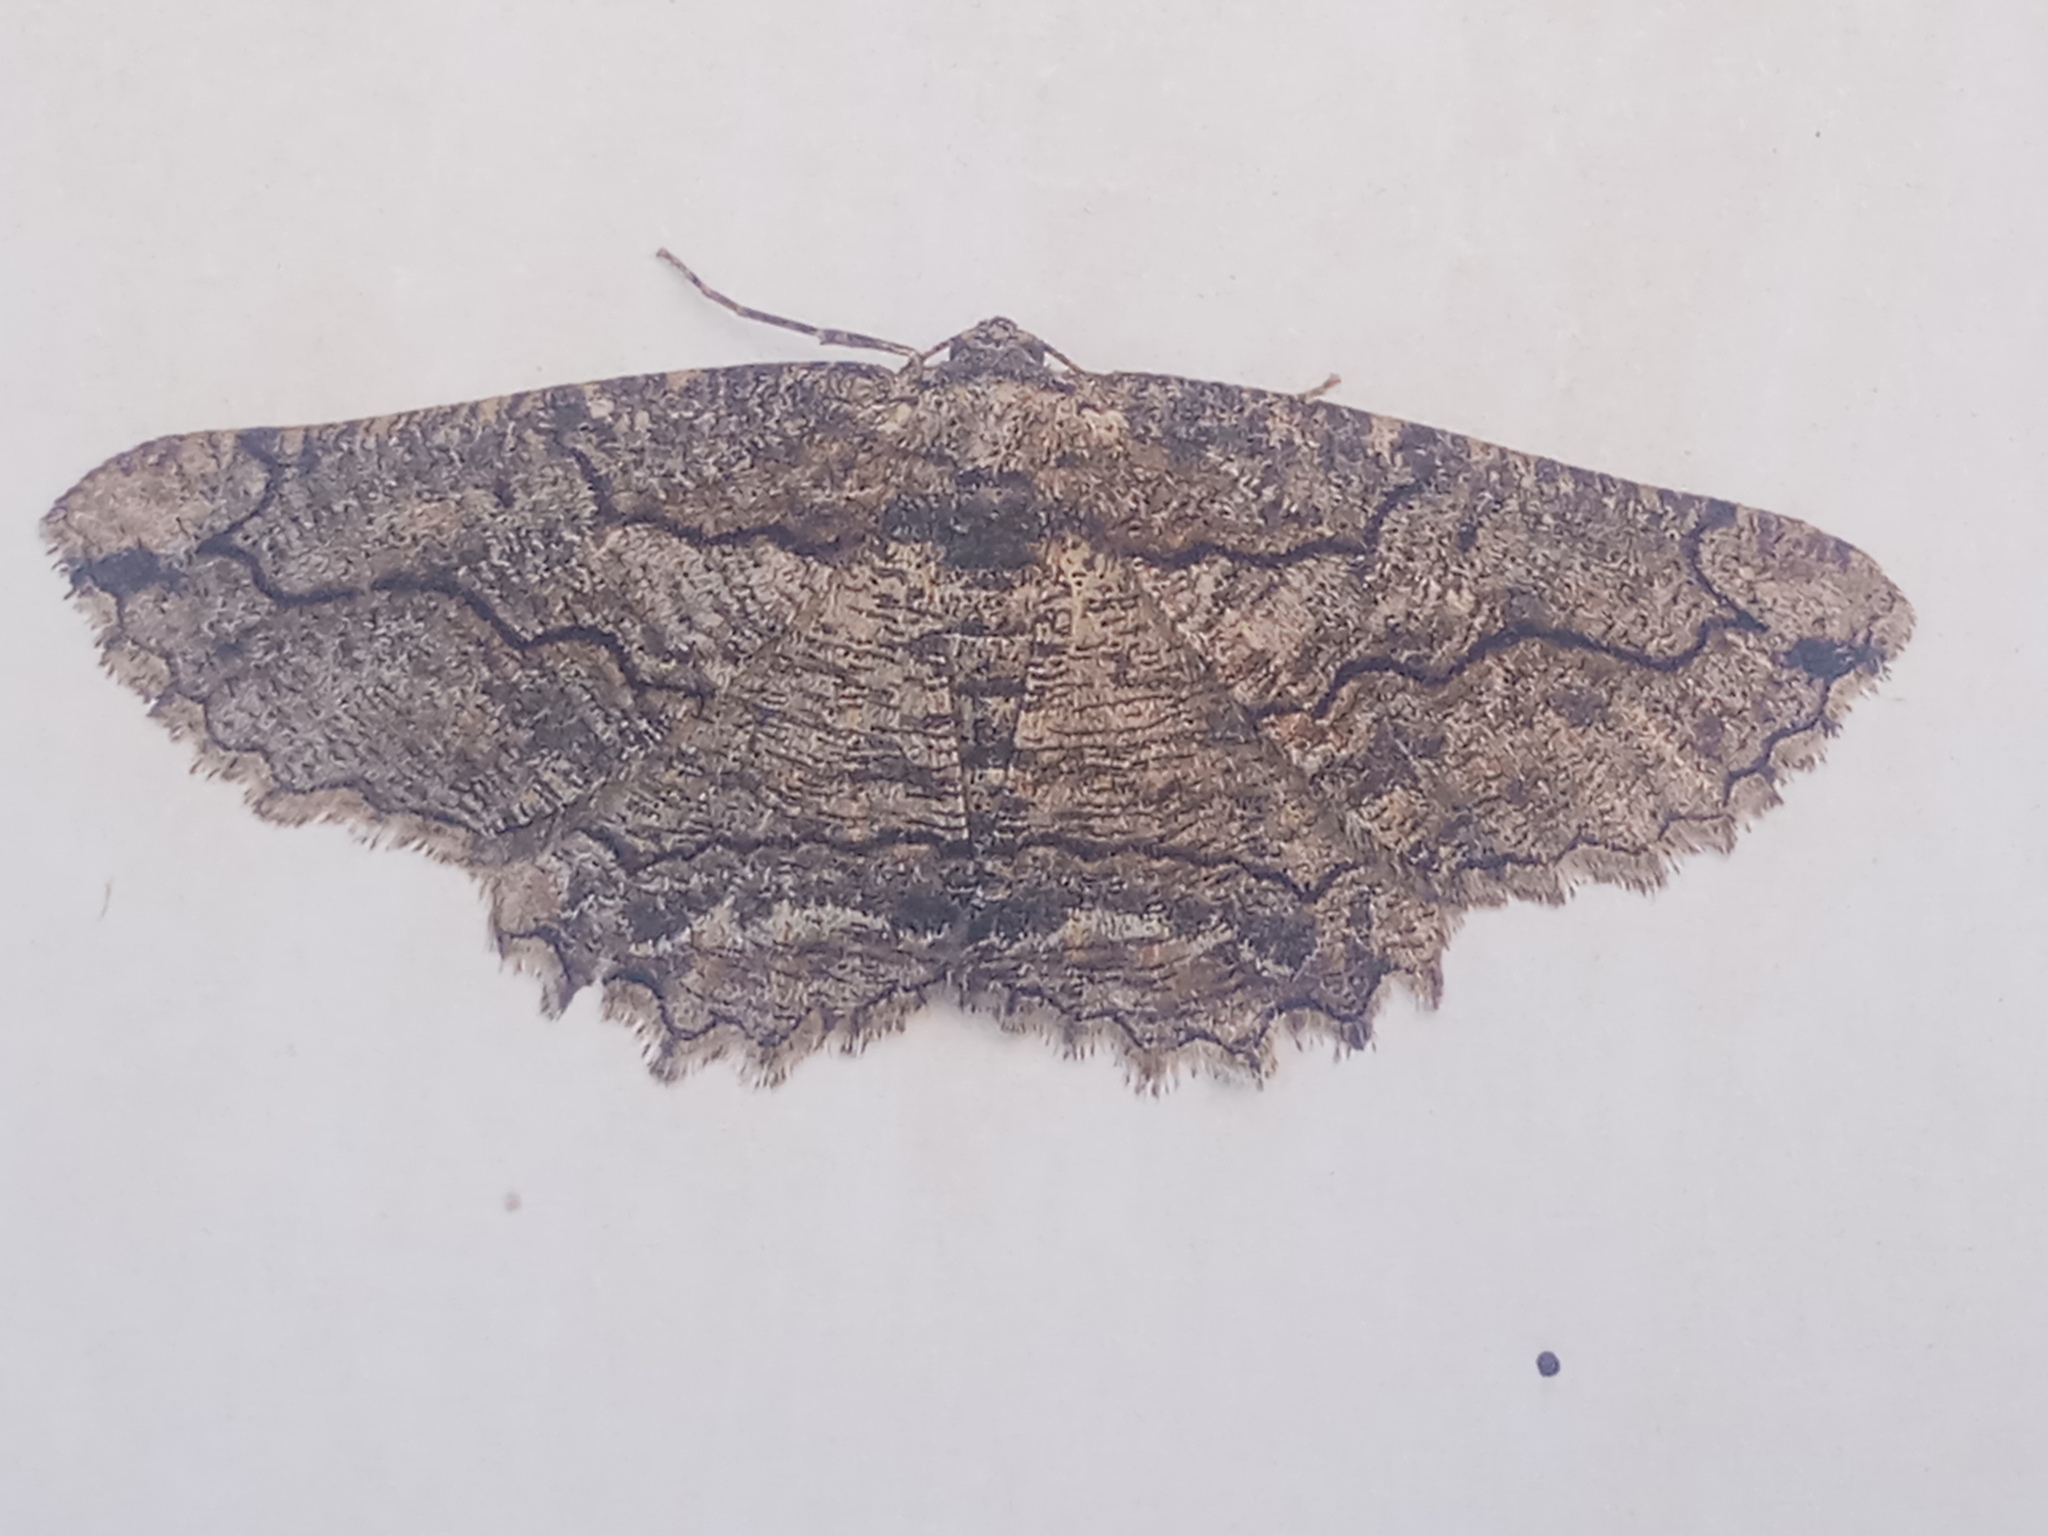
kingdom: Animalia
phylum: Arthropoda
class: Insecta
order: Lepidoptera
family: Geometridae
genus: Menophra
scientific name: Menophra japygiaria
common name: Brassy waved umber
